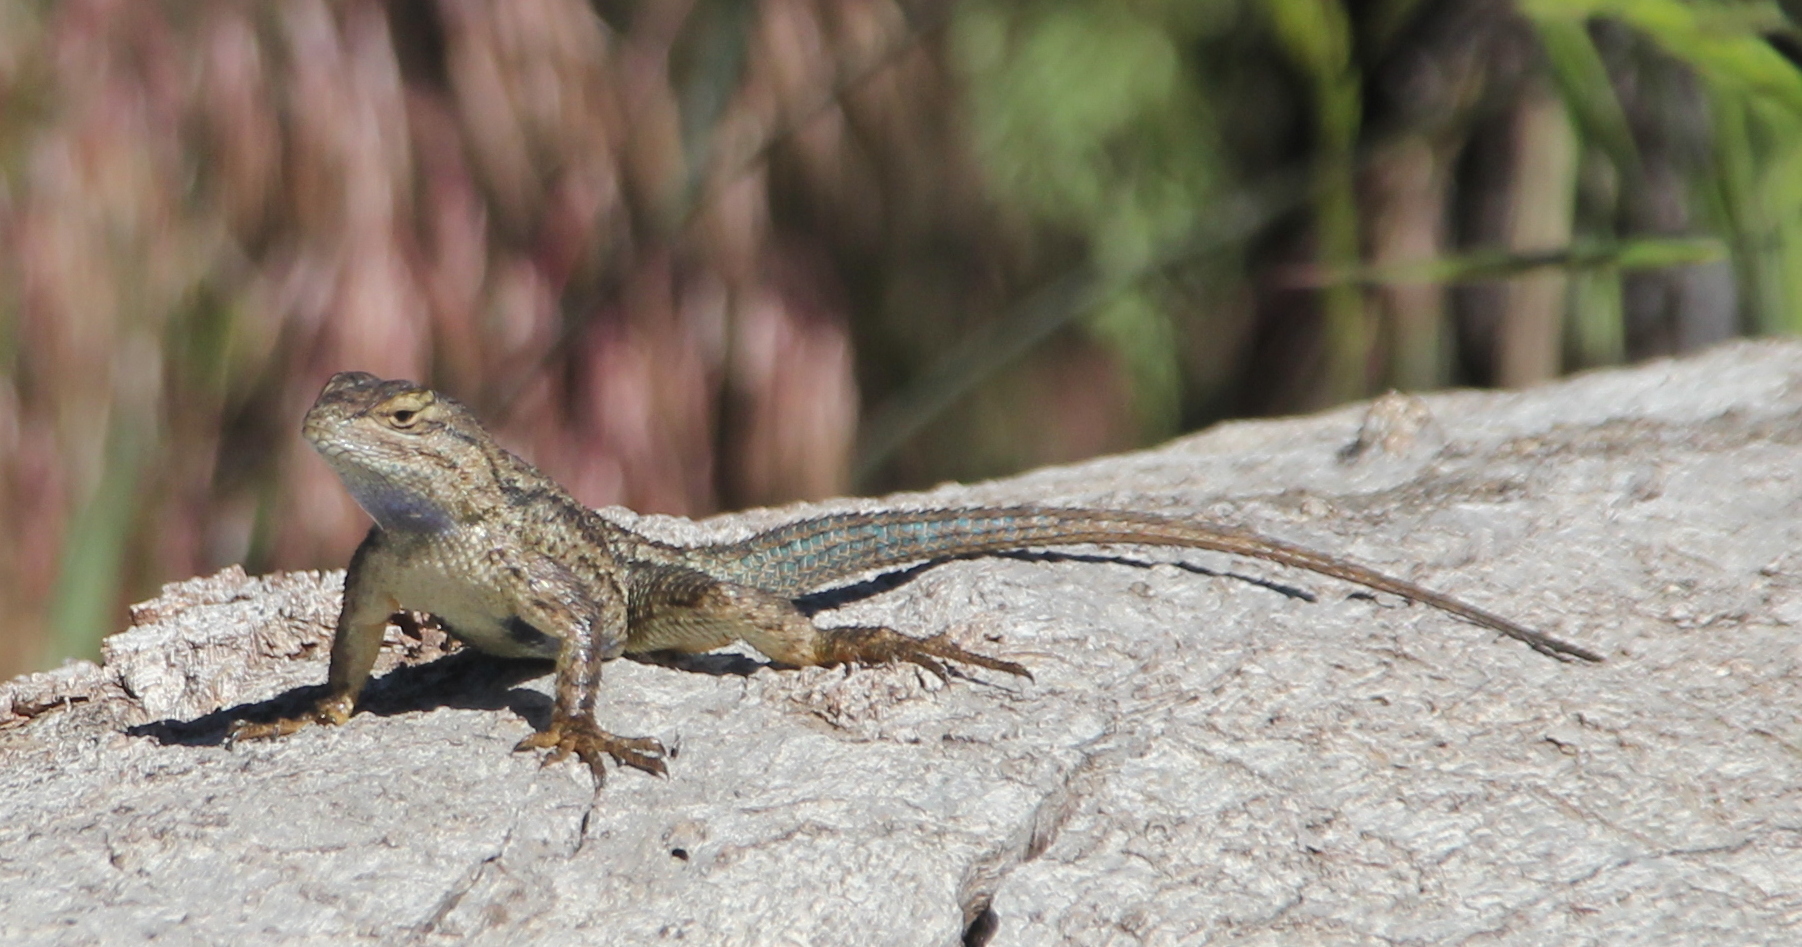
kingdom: Animalia
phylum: Chordata
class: Squamata
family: Phrynosomatidae
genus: Sceloporus
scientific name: Sceloporus occidentalis
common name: Western fence lizard
